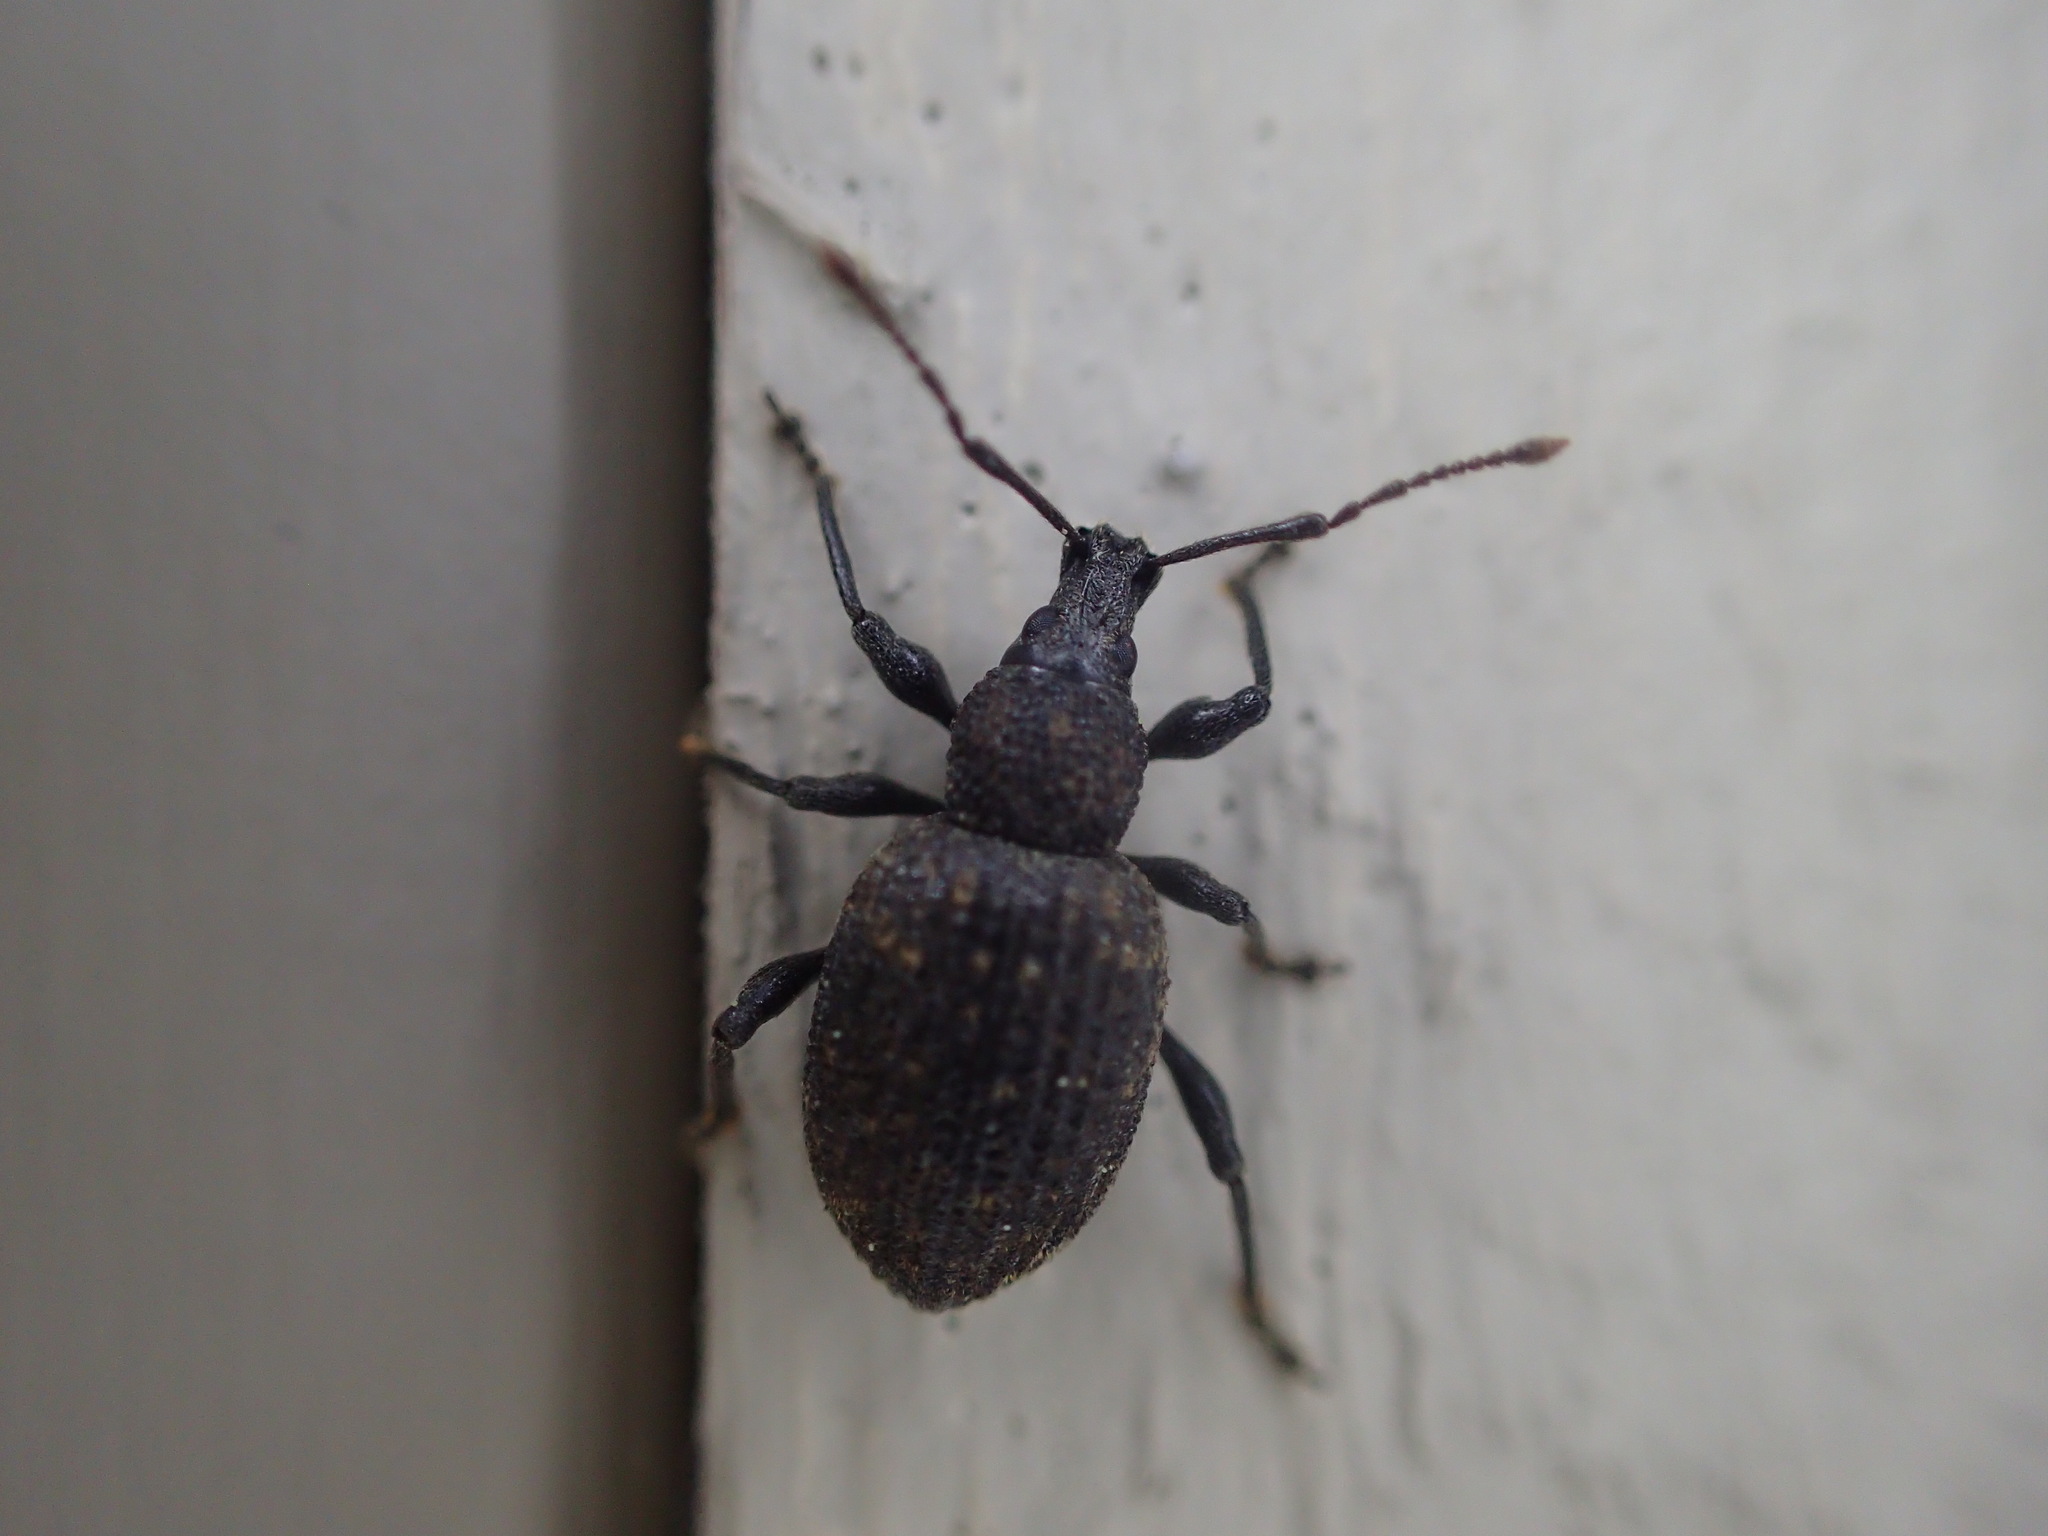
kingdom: Animalia
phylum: Arthropoda
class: Insecta
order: Coleoptera
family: Curculionidae
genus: Otiorhynchus
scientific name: Otiorhynchus sulcatus
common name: Black vine weevil
